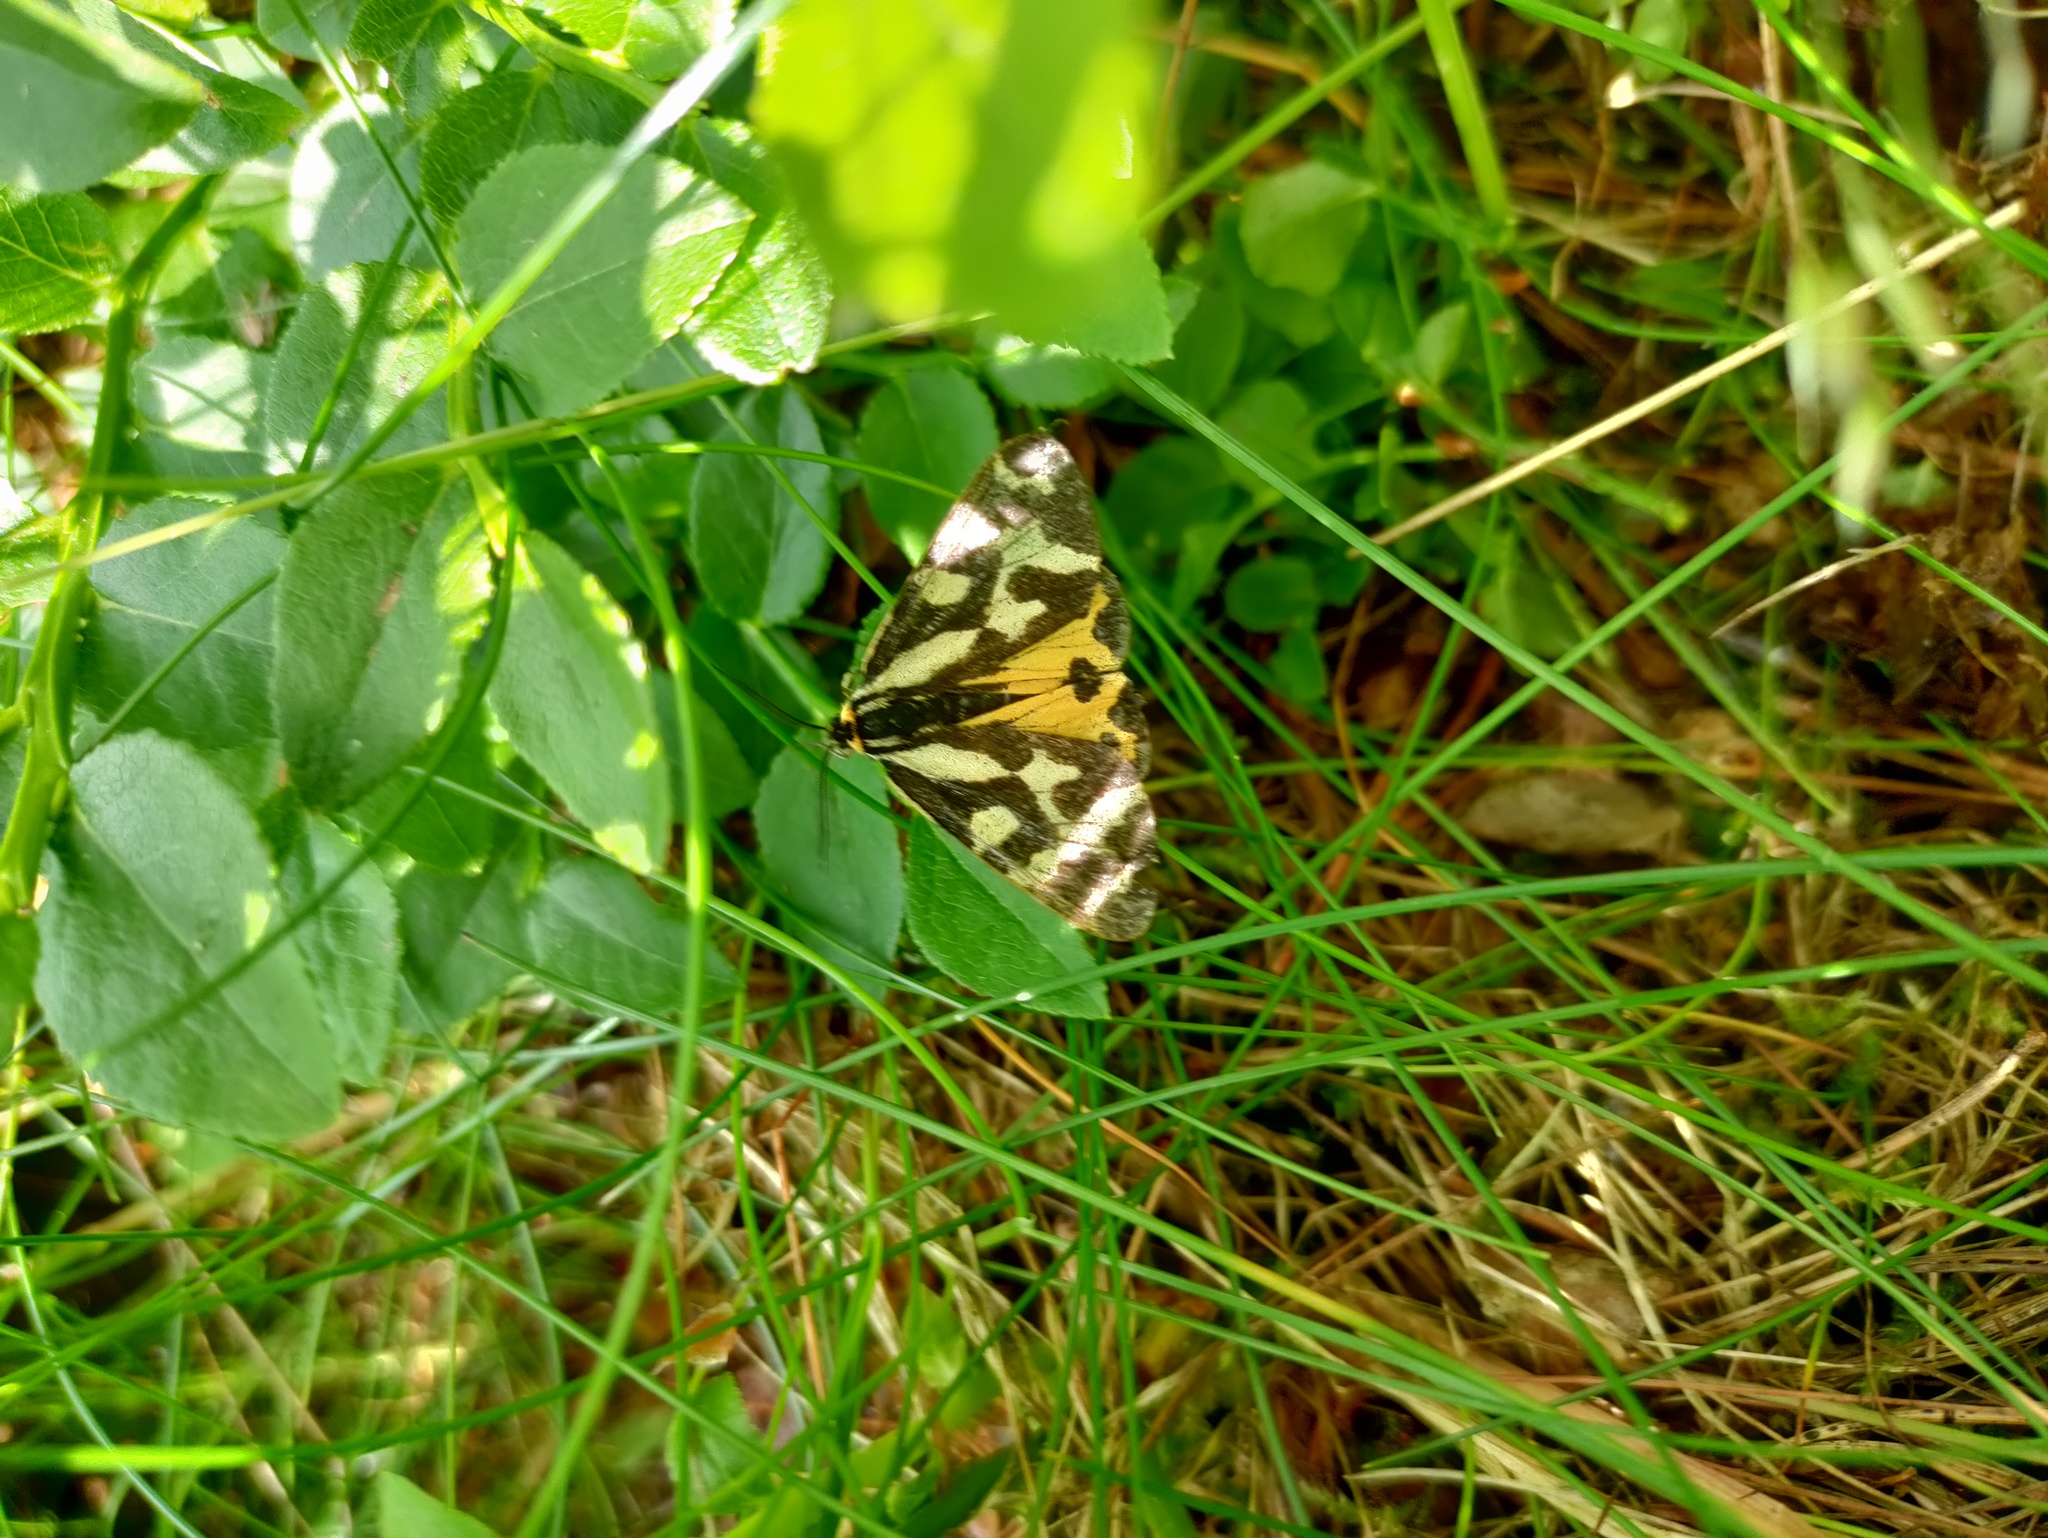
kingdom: Animalia
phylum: Arthropoda
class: Insecta
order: Lepidoptera
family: Erebidae
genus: Parasemia
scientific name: Parasemia plantaginis
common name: Wood tiger
